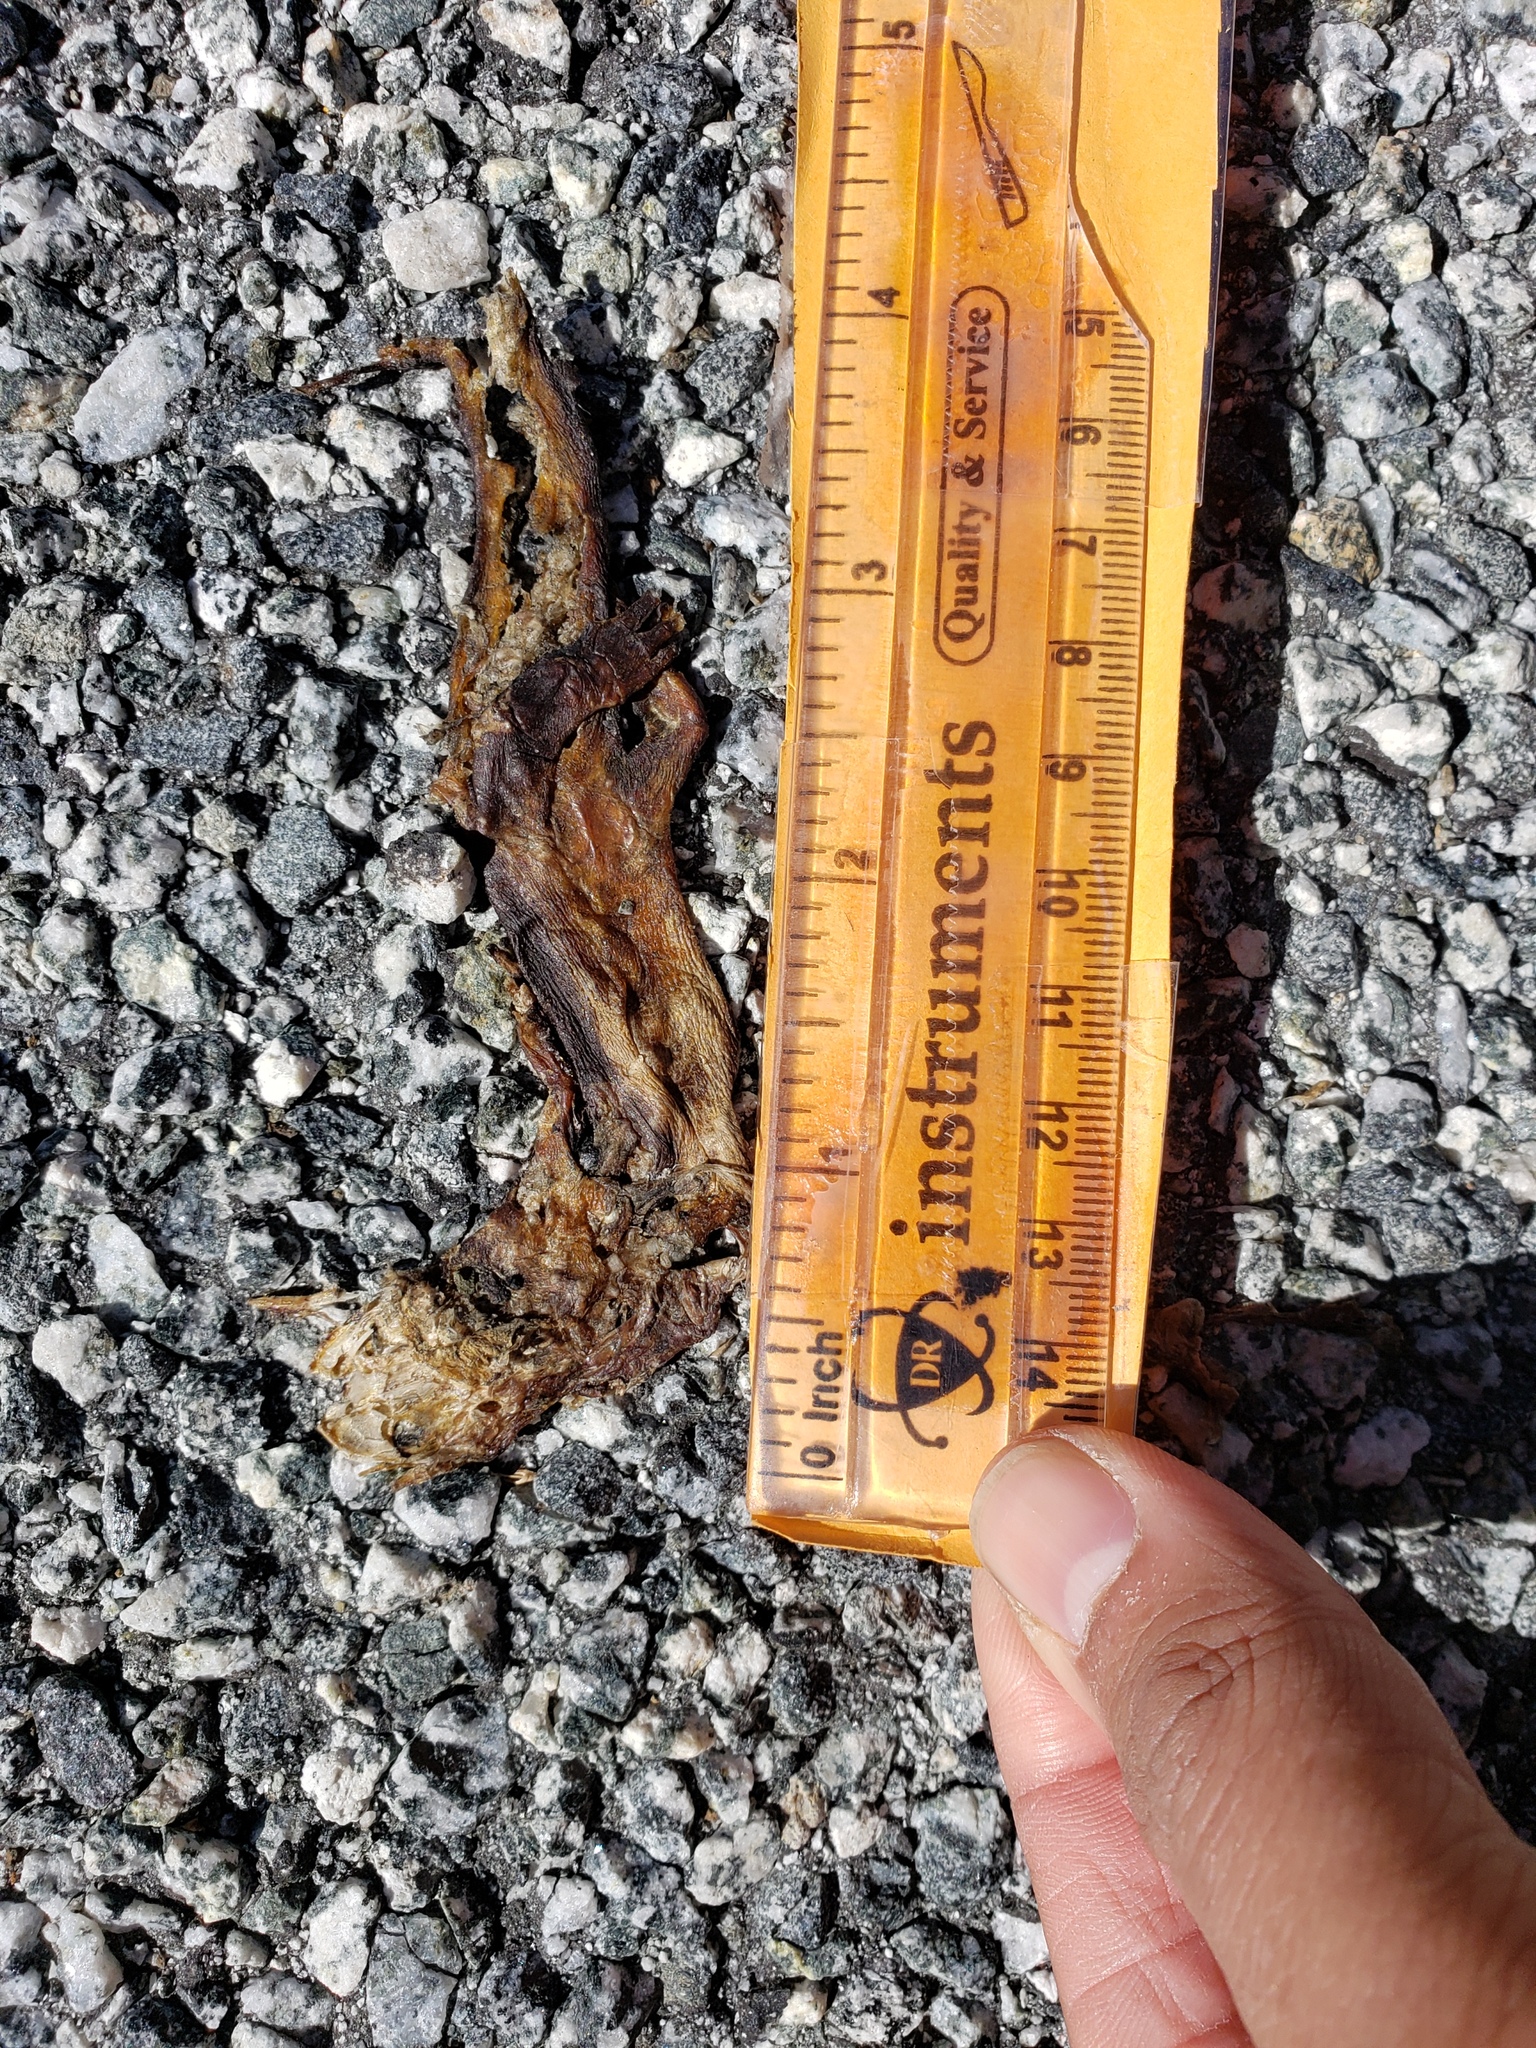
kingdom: Animalia
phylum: Chordata
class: Amphibia
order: Caudata
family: Salamandridae
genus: Taricha
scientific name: Taricha
